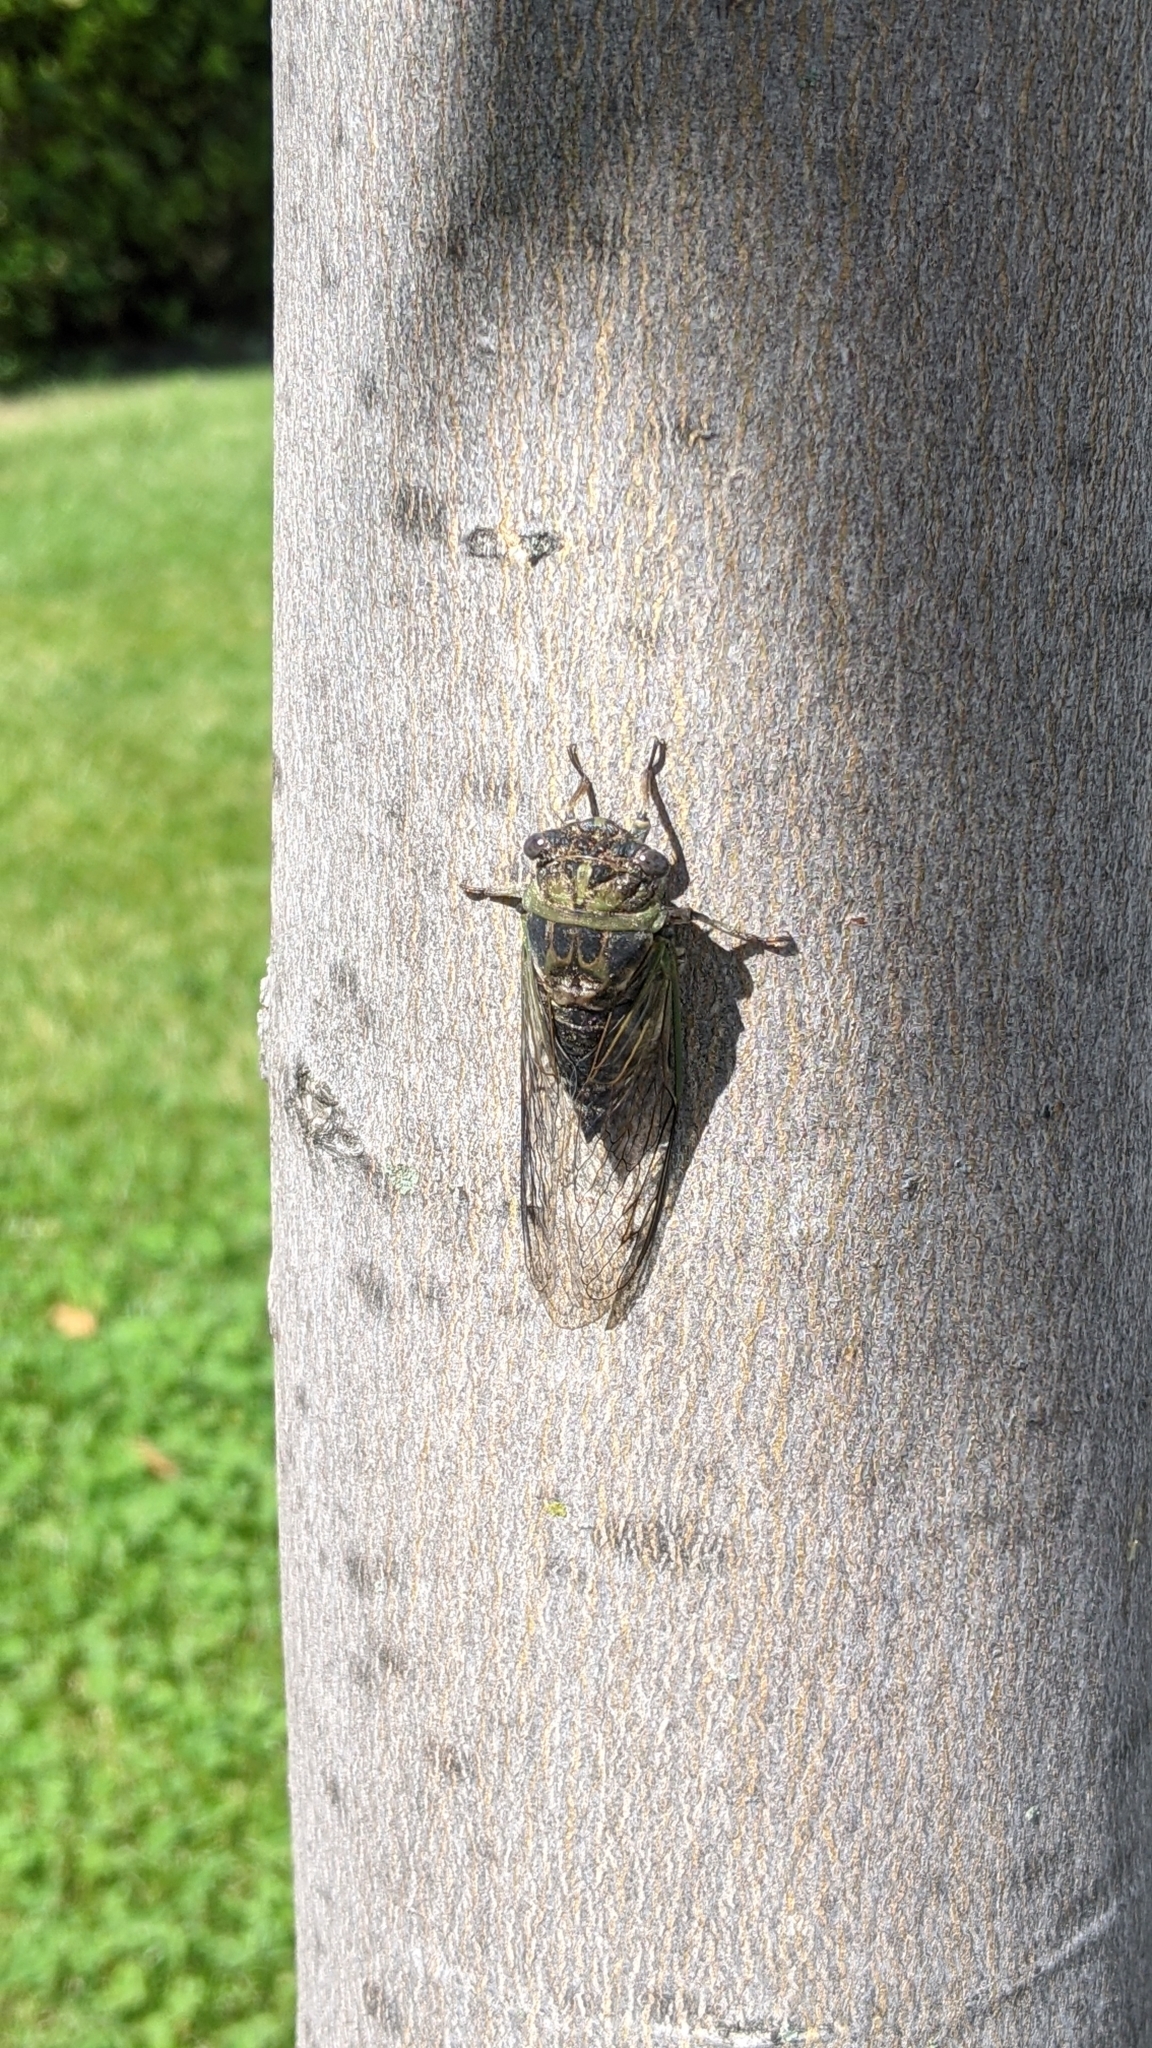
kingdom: Animalia
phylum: Arthropoda
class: Insecta
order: Hemiptera
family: Cicadidae
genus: Neotibicen
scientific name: Neotibicen canicularis
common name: God-day cicada
